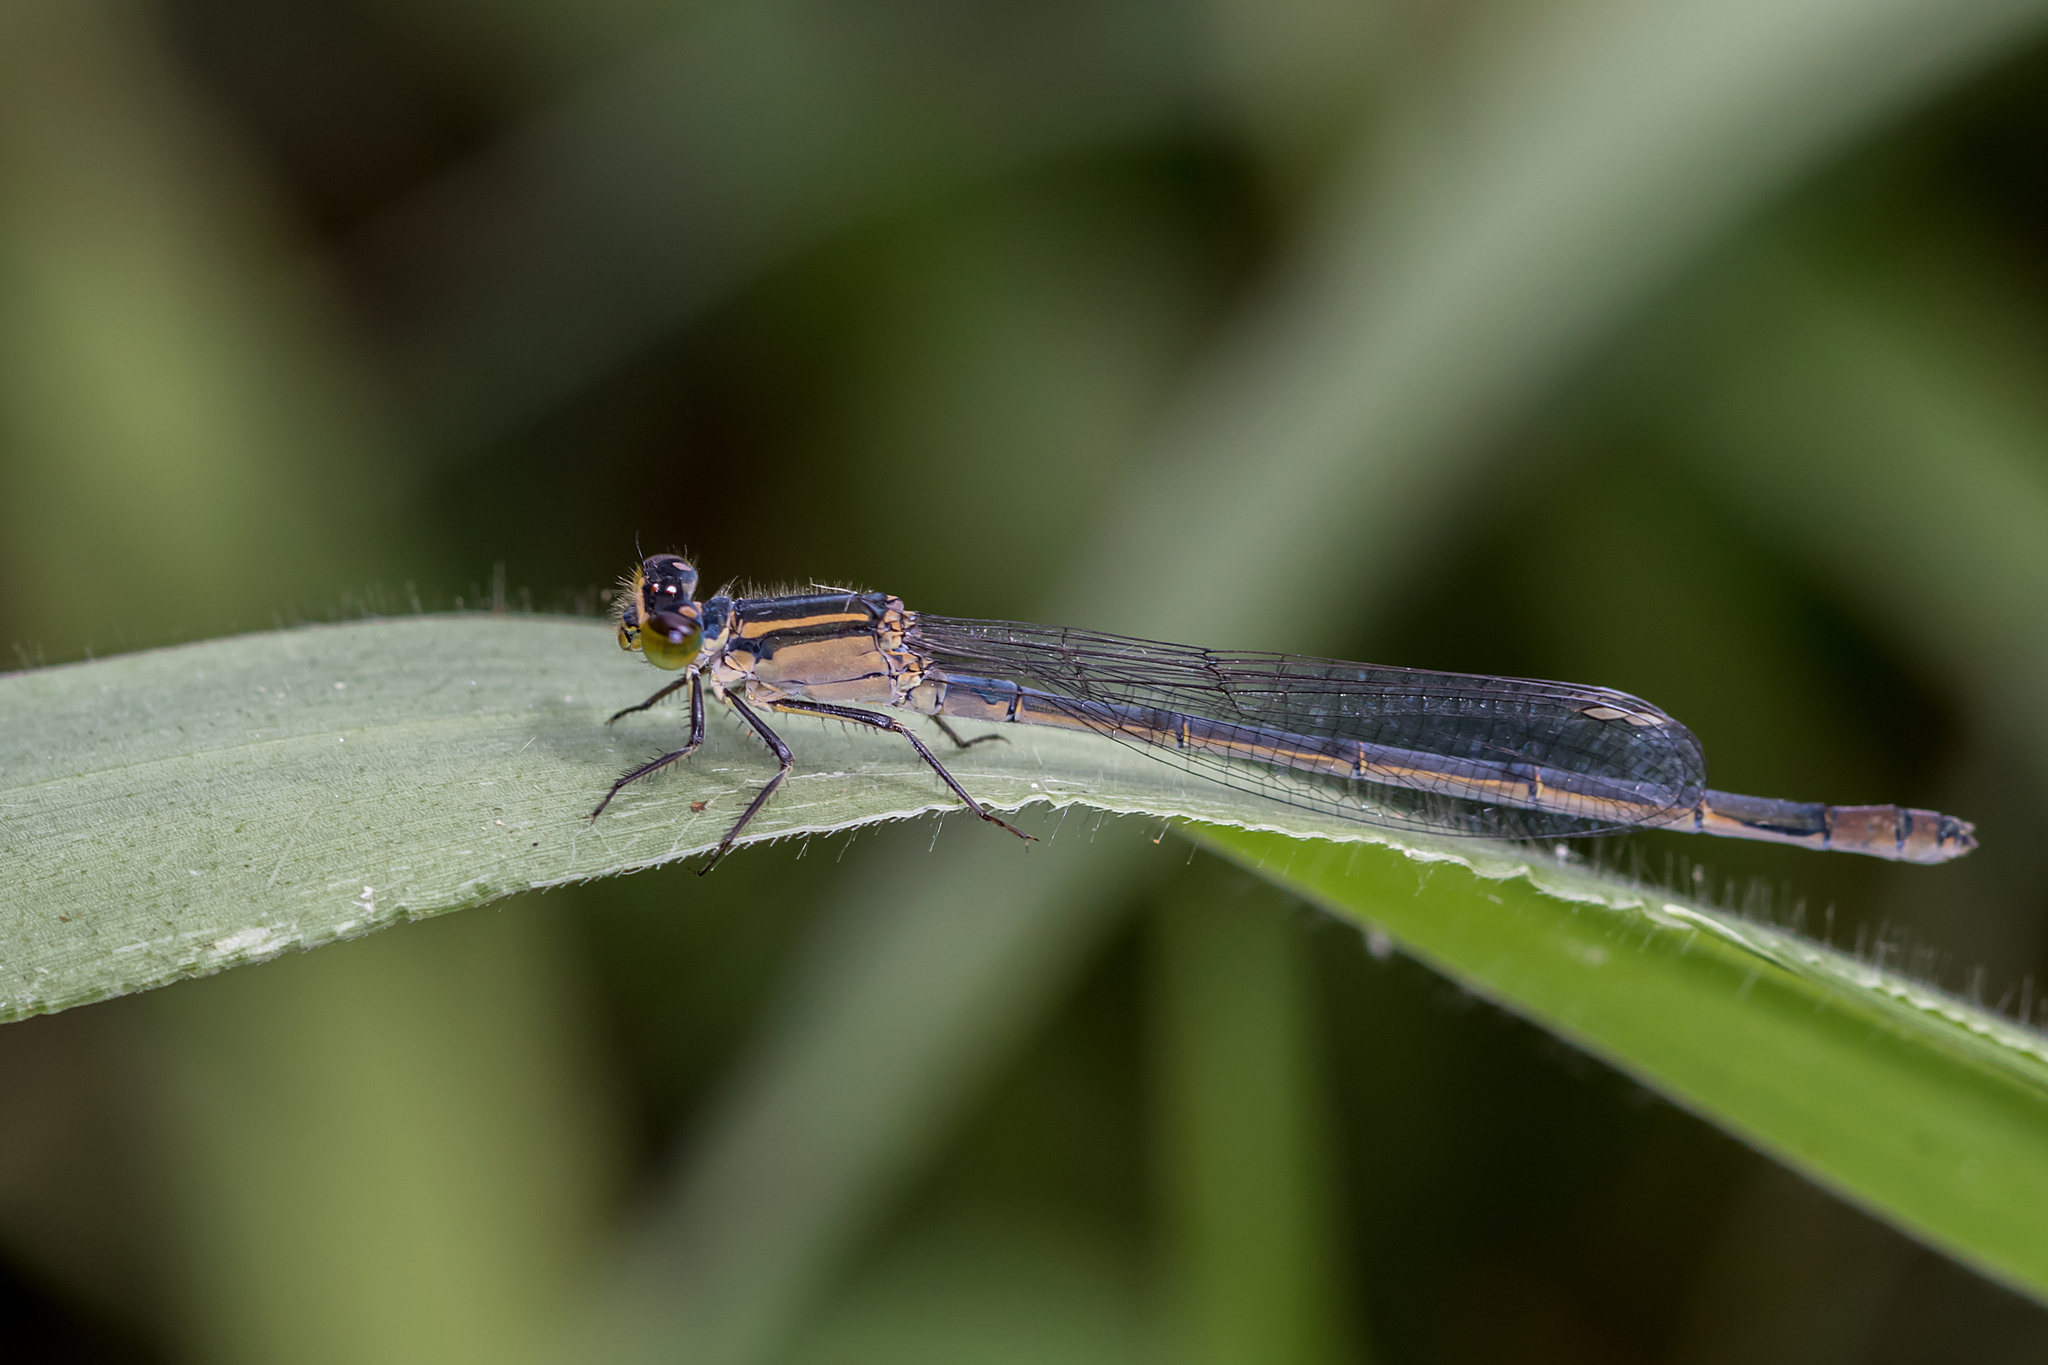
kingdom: Animalia
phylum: Arthropoda
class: Insecta
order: Odonata
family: Coenagrionidae
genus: Ischnura
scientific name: Ischnura heterosticta
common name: Common bluetail
